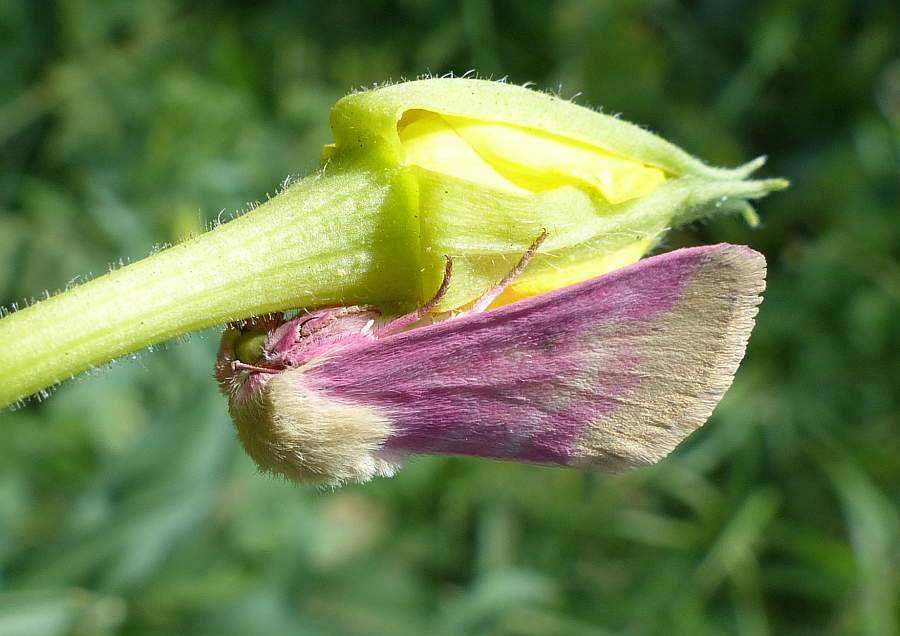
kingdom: Animalia
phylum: Arthropoda
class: Insecta
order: Lepidoptera
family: Noctuidae
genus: Schinia
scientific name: Schinia florida
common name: Primrose moth
